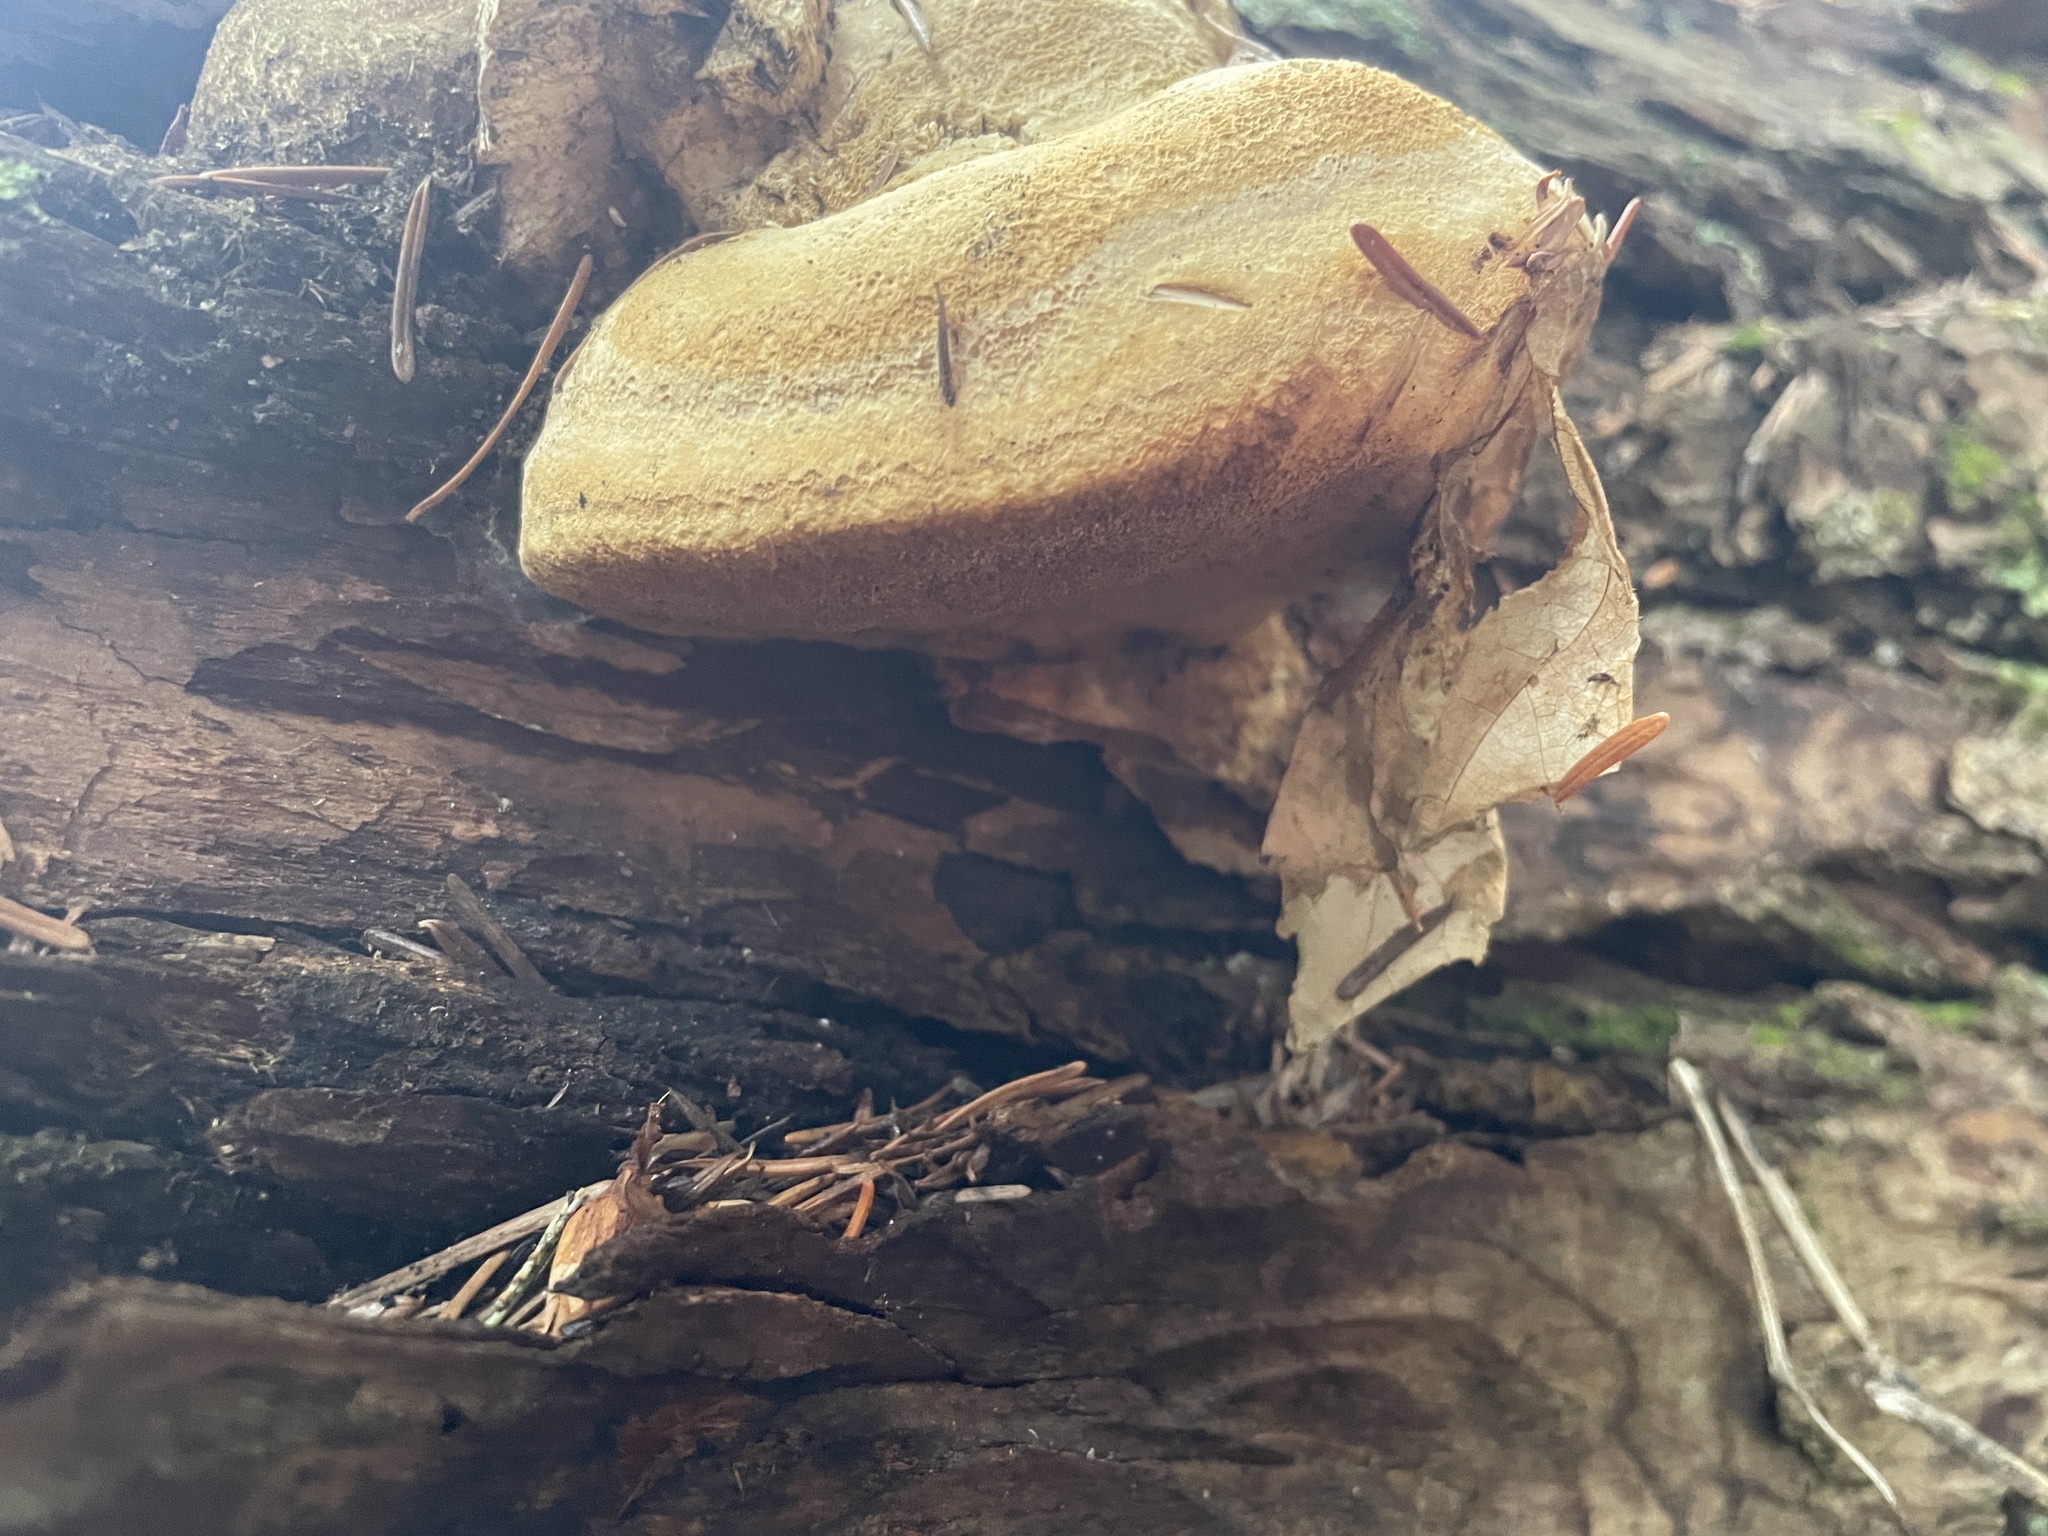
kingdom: Fungi
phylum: Basidiomycota
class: Agaricomycetes
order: Polyporales
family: Fomitopsidaceae
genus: Fomitopsis
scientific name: Fomitopsis officinalis
